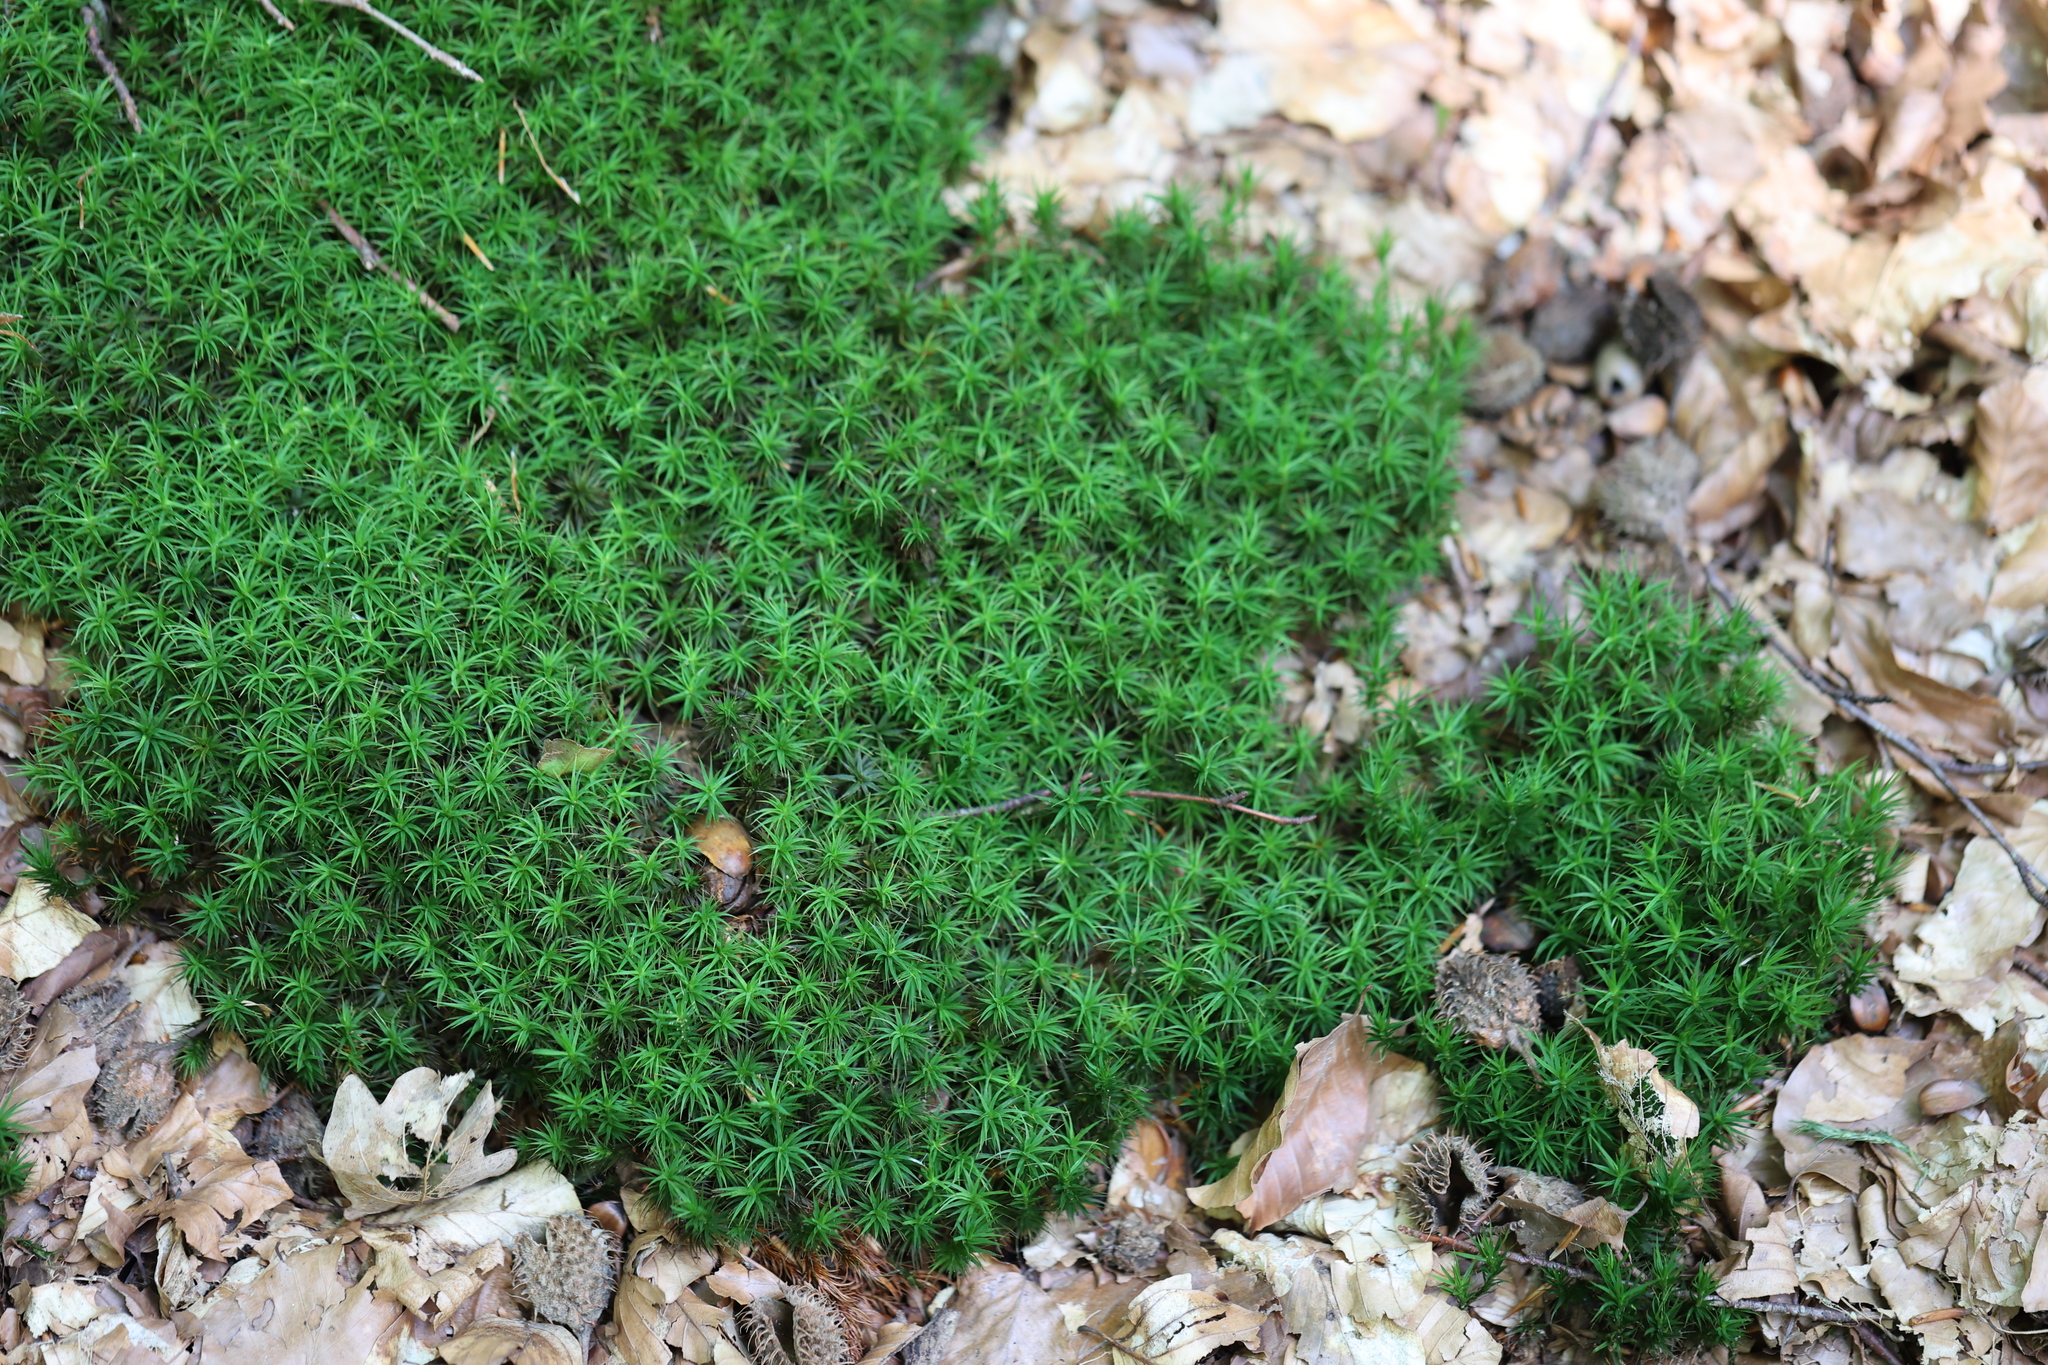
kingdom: Plantae
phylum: Bryophyta
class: Polytrichopsida
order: Polytrichales
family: Polytrichaceae
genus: Polytrichum
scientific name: Polytrichum formosum
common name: Bank haircap moss
